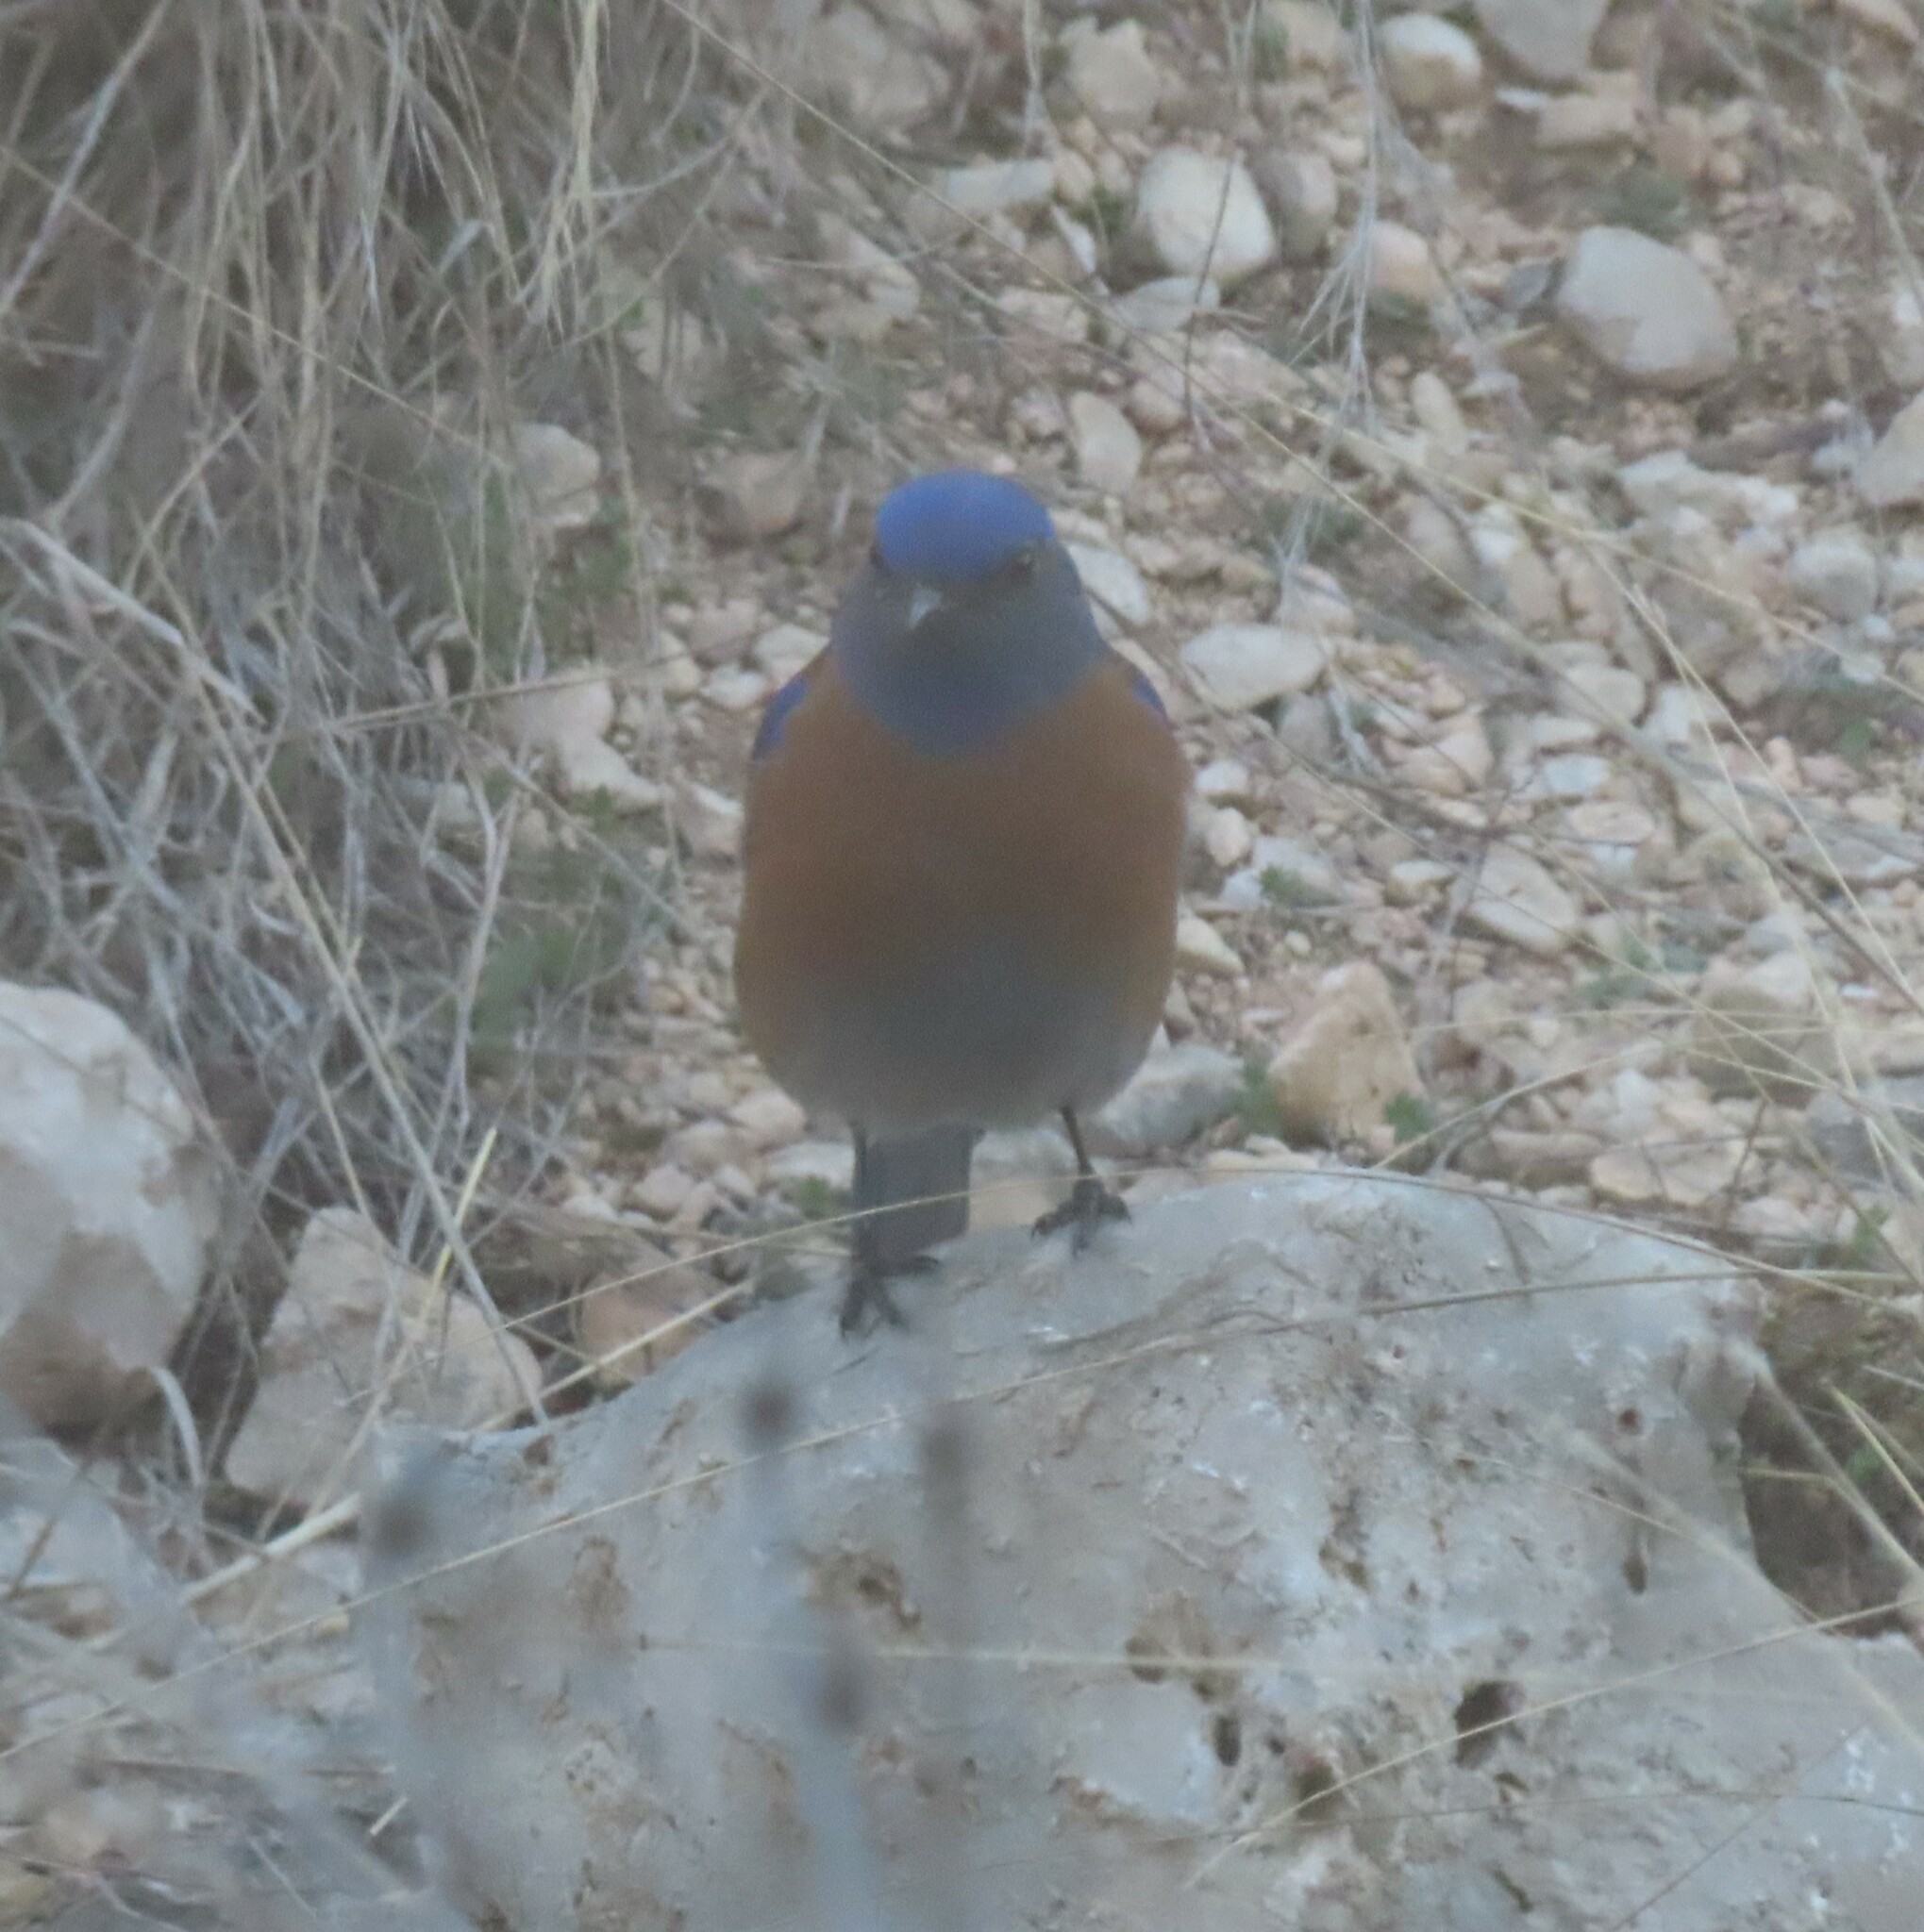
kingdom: Animalia
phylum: Chordata
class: Aves
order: Passeriformes
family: Turdidae
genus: Sialia
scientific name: Sialia mexicana
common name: Western bluebird
